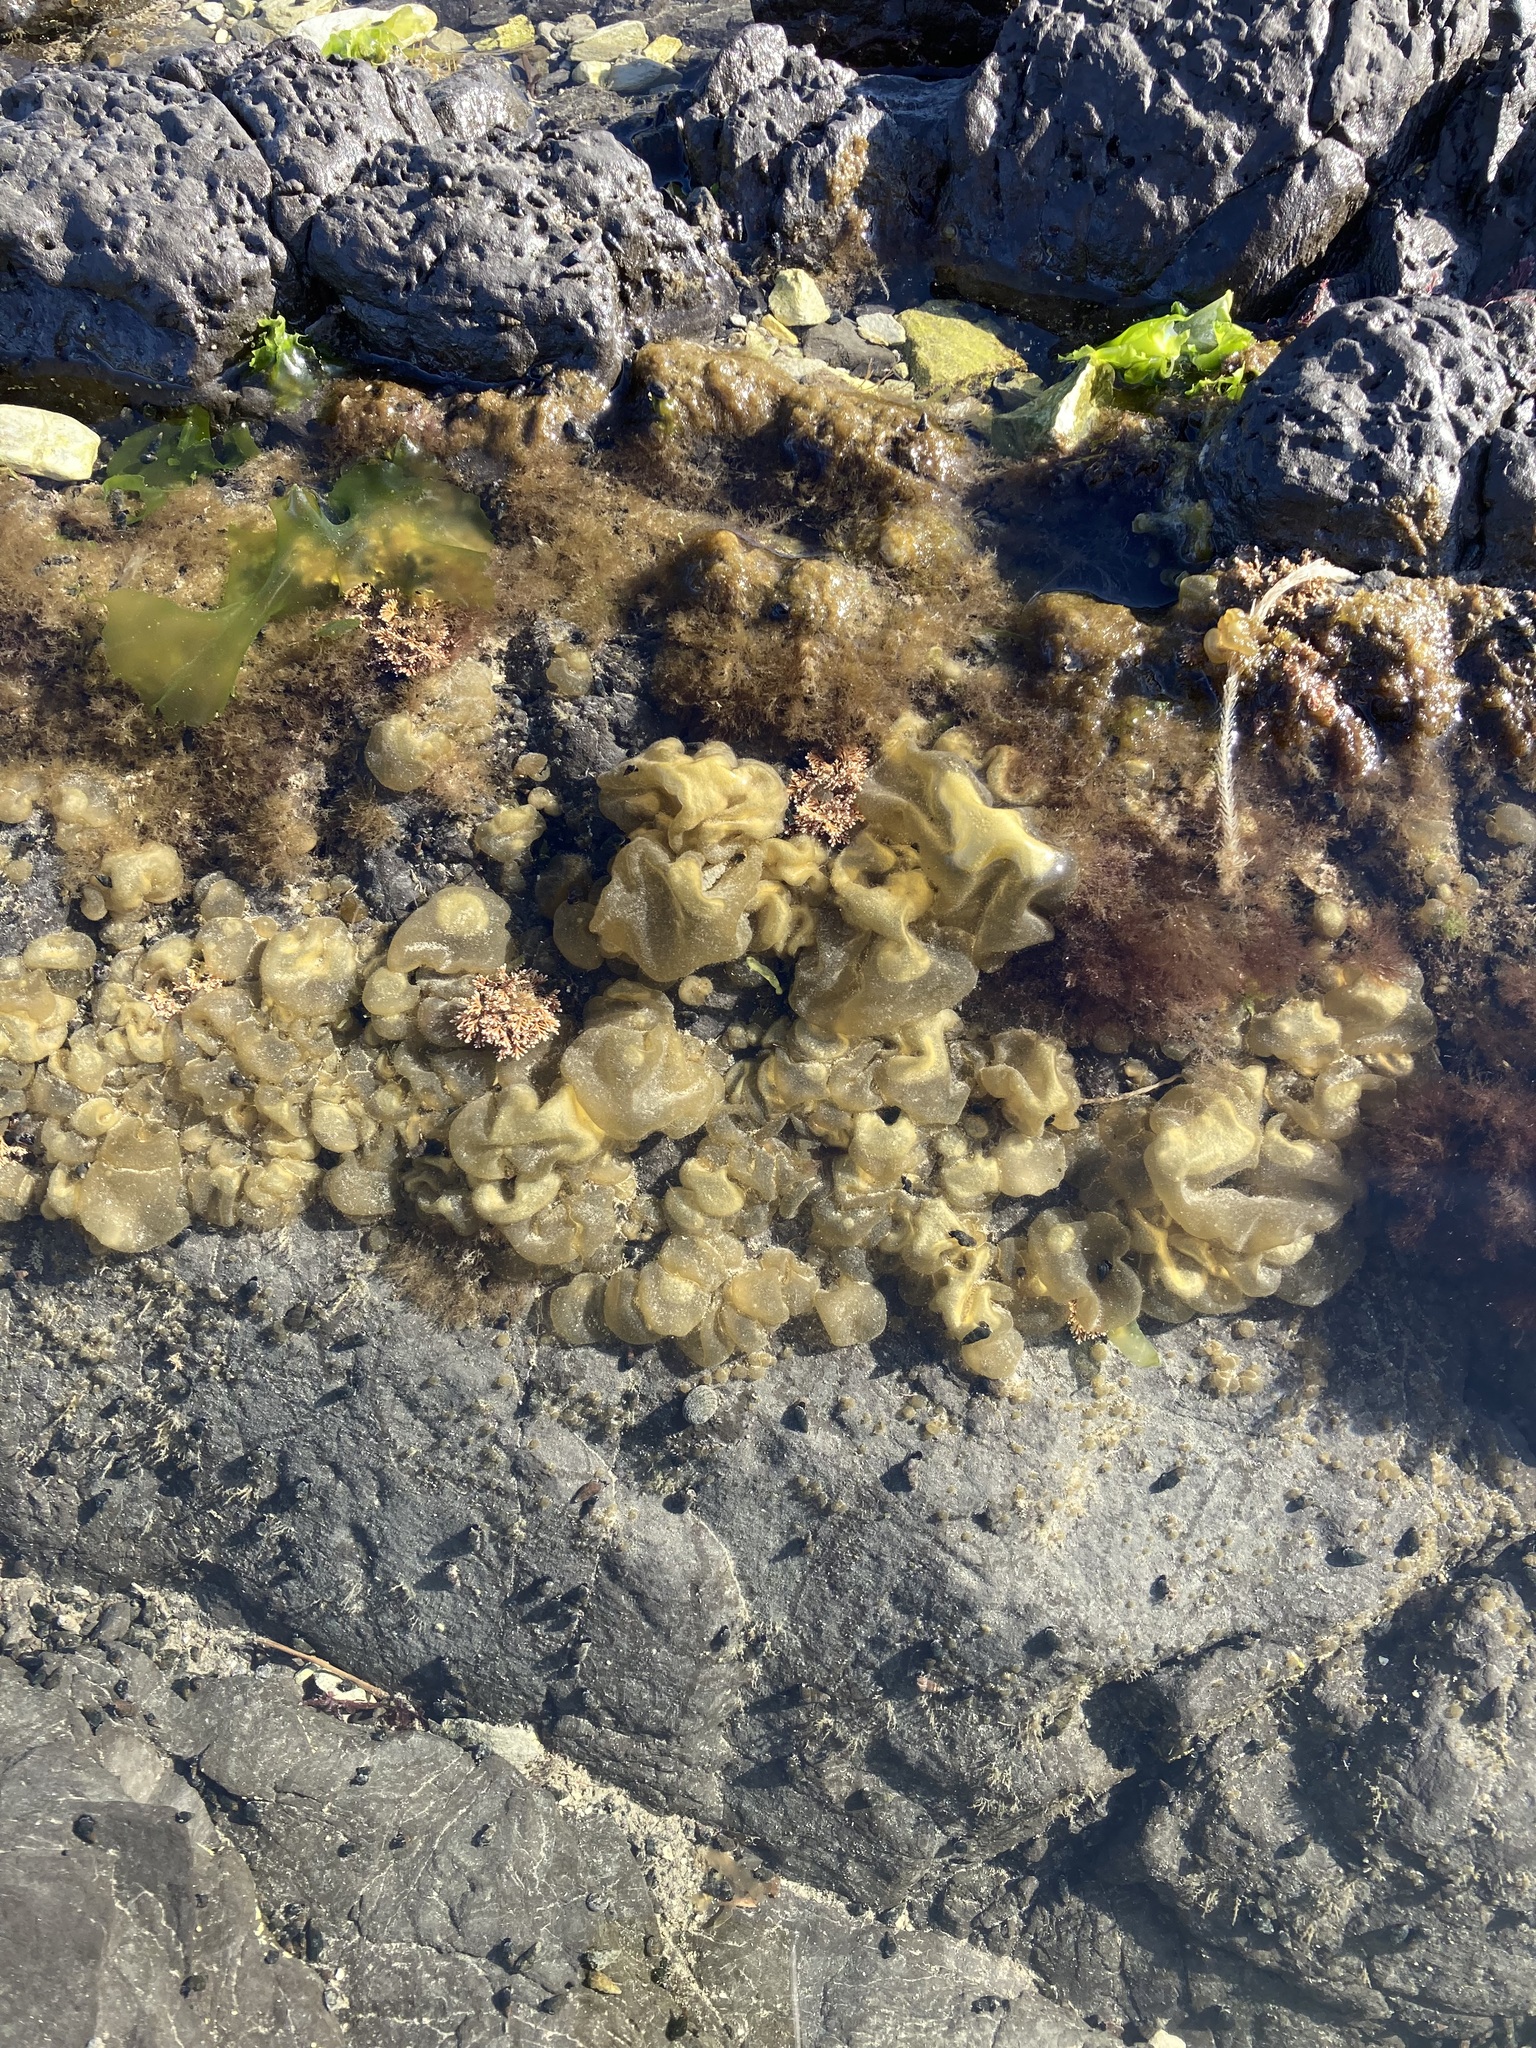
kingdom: Chromista
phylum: Ochrophyta
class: Phaeophyceae
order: Scytosiphonales
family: Scytosiphonaceae
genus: Colpomenia
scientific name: Colpomenia sinuosa
